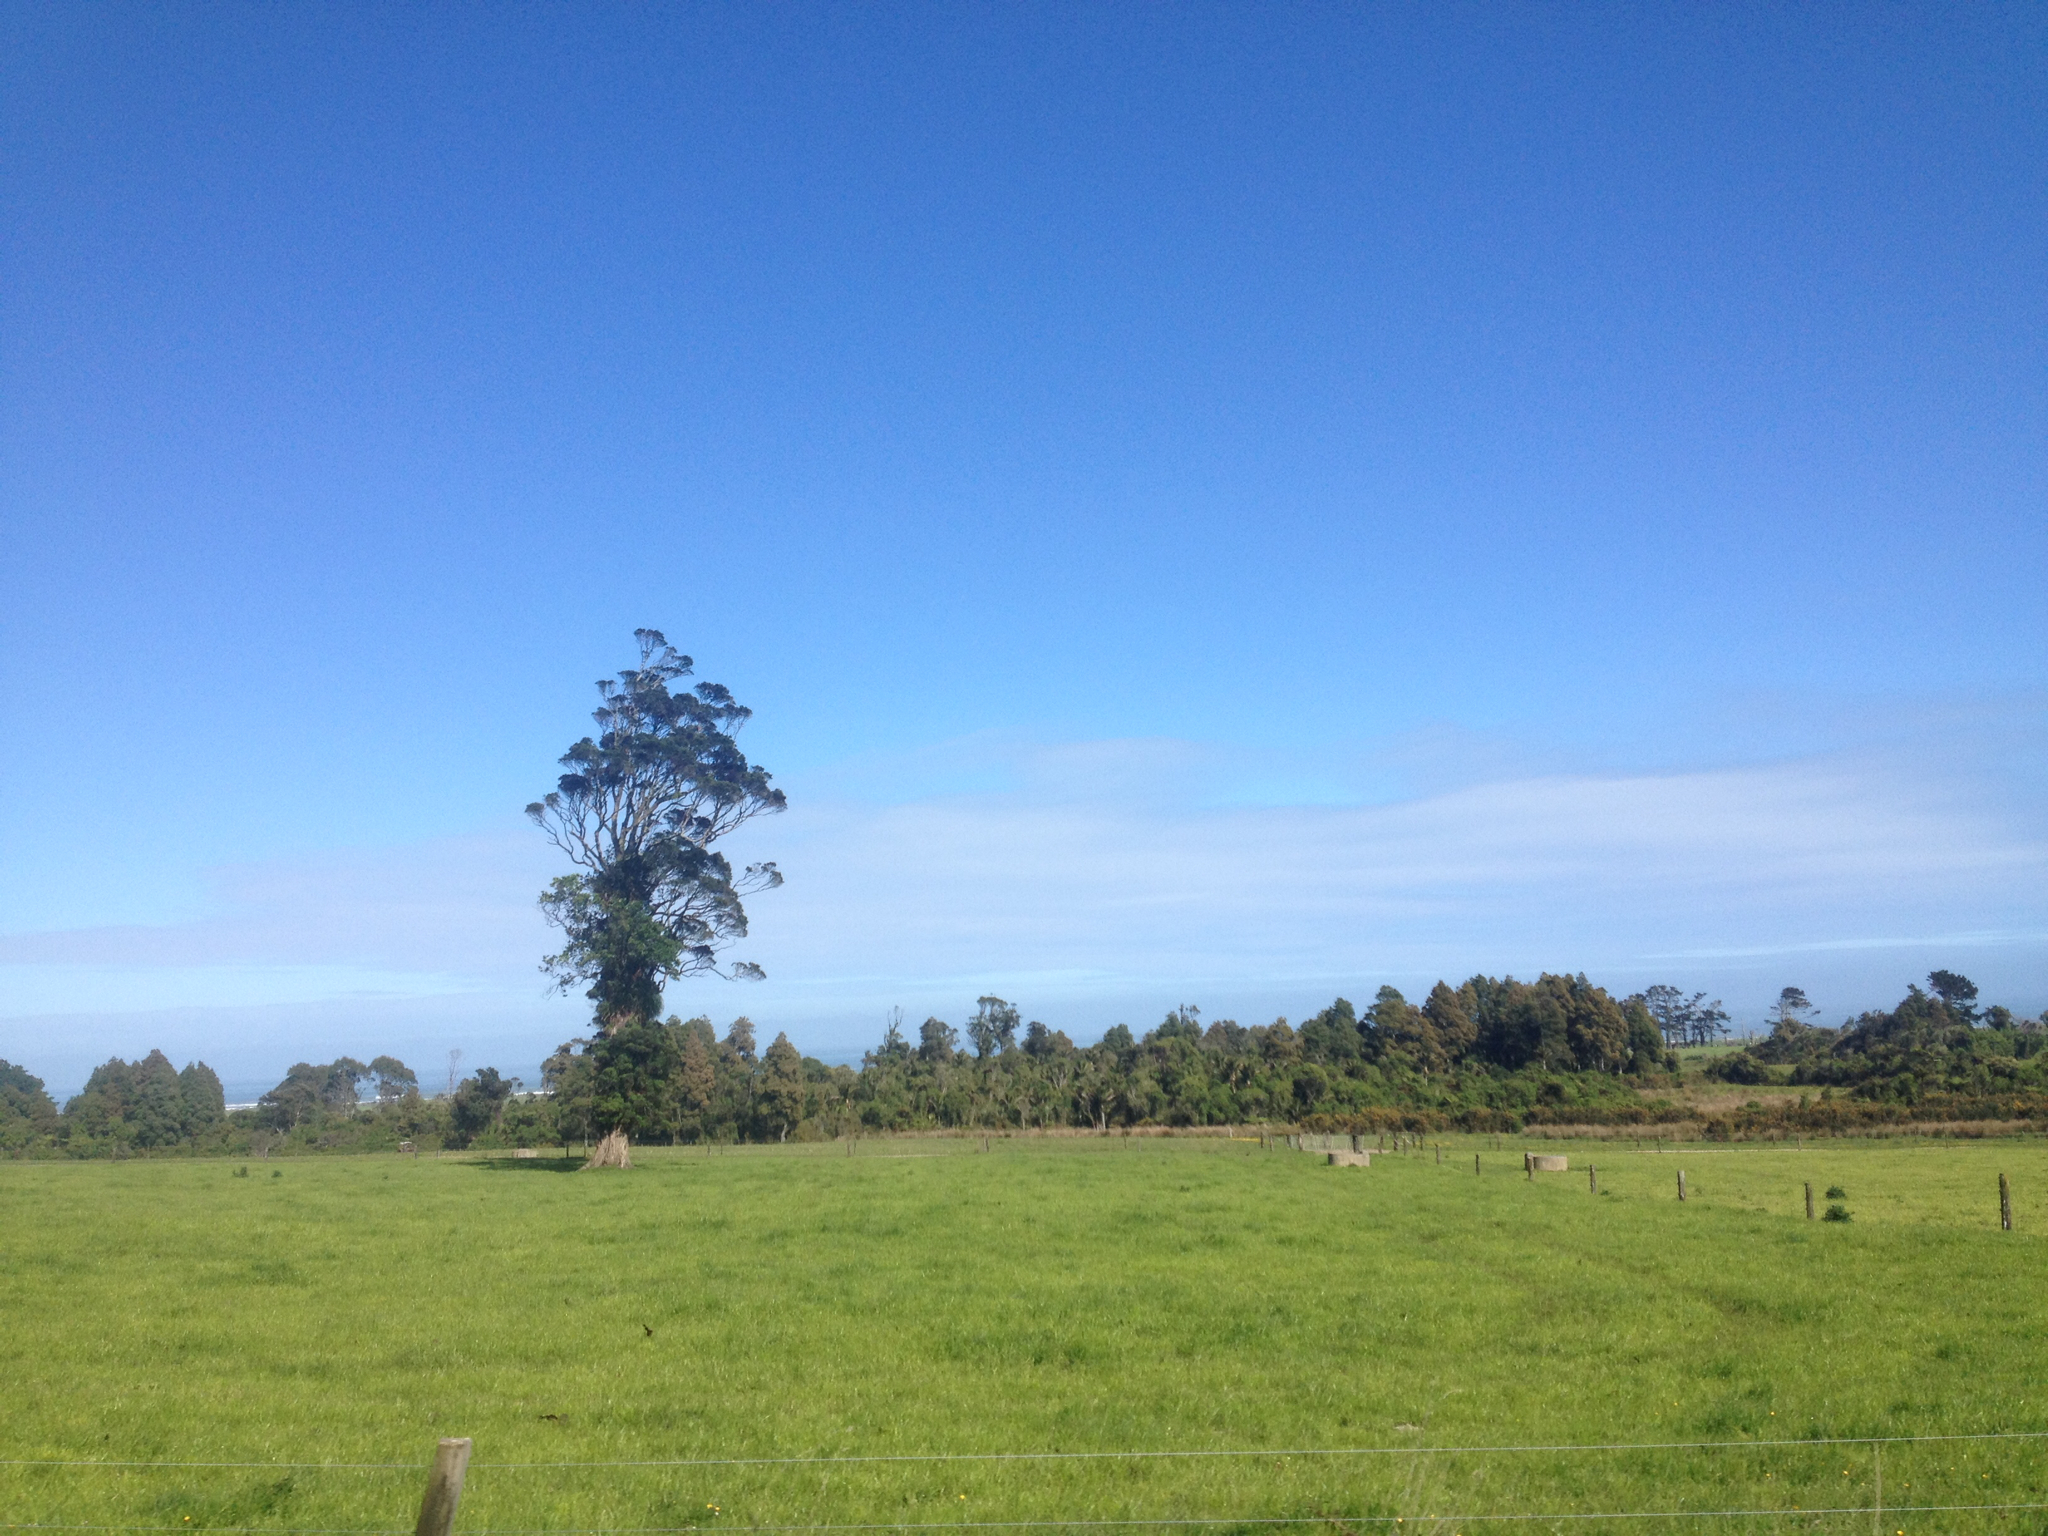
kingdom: Plantae
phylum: Tracheophyta
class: Magnoliopsida
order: Myrtales
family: Myrtaceae
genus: Metrosideros
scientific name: Metrosideros robusta
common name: Northern rata
